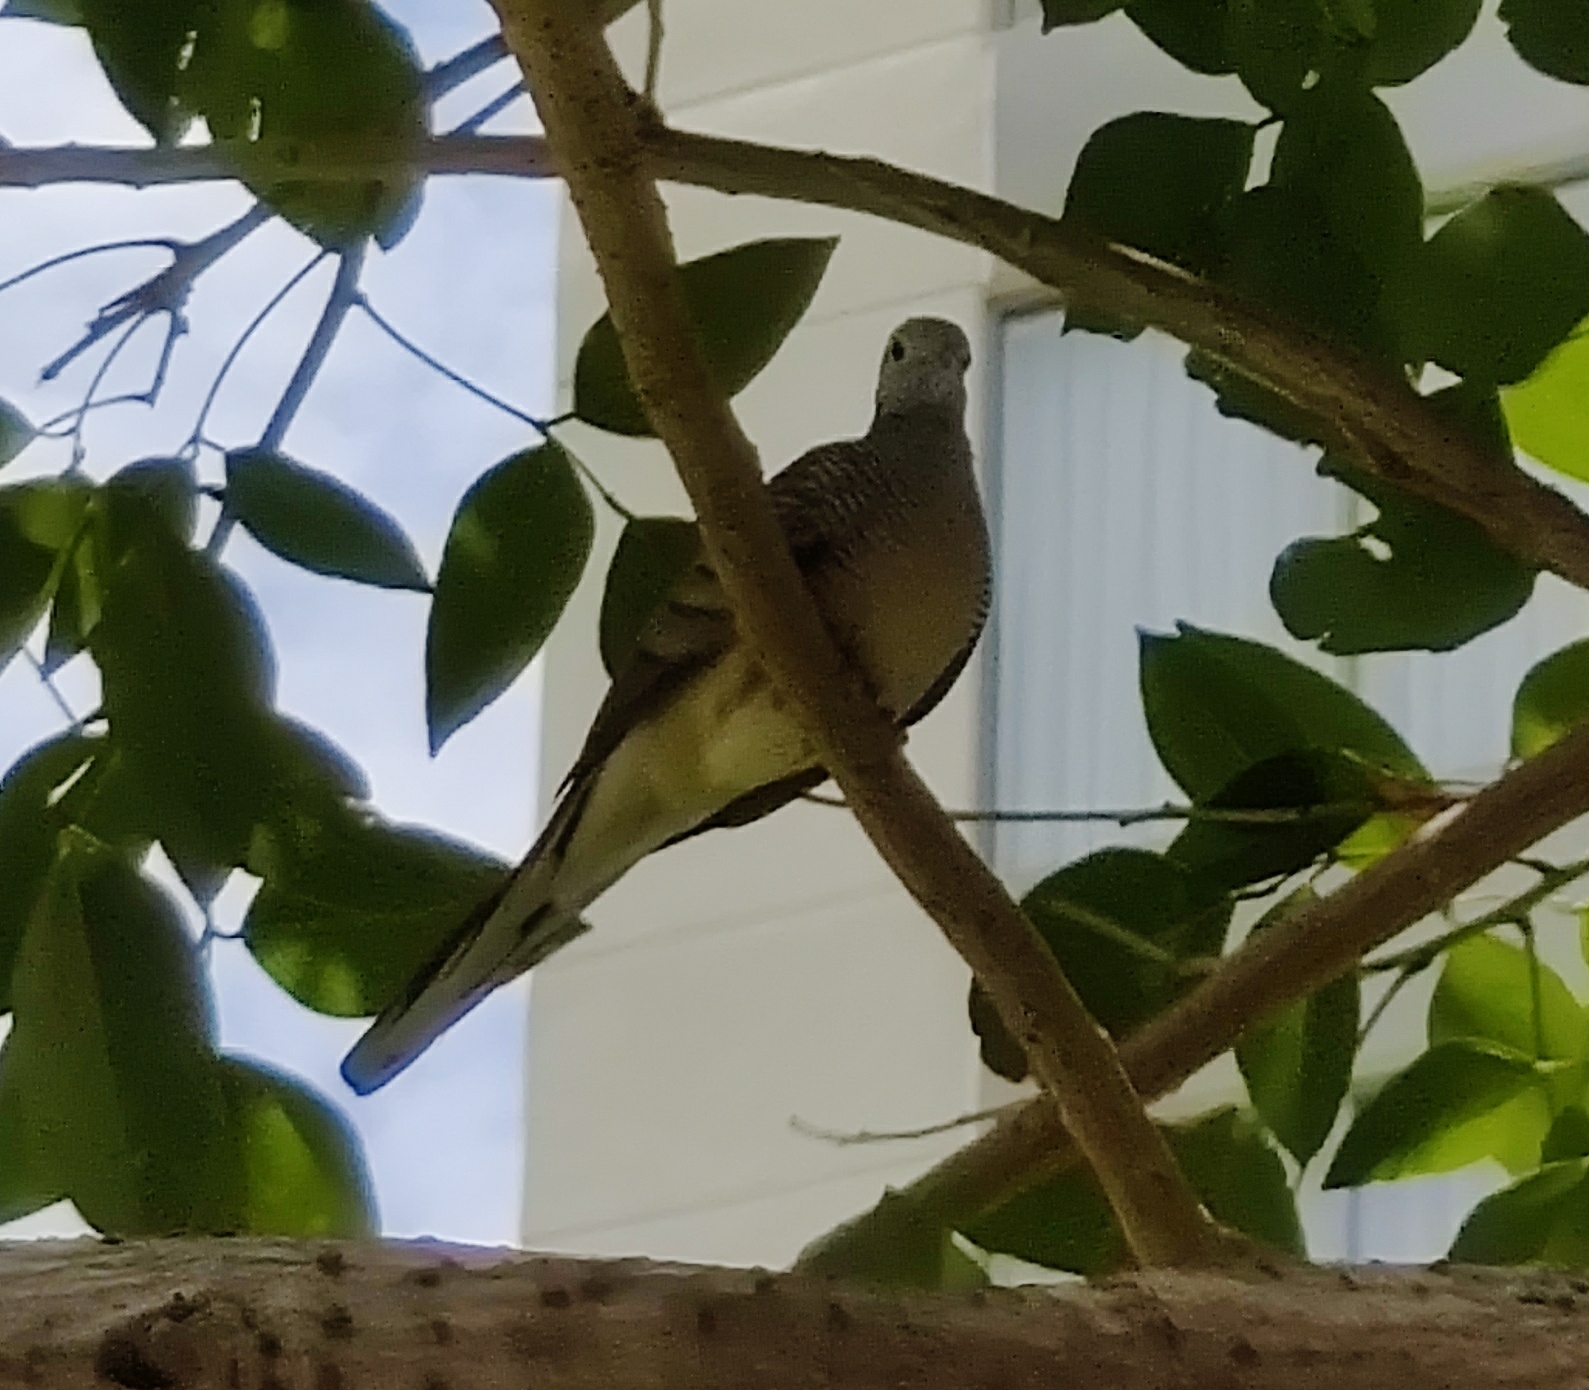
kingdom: Animalia
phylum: Chordata
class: Aves
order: Columbiformes
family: Columbidae
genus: Geopelia
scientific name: Geopelia striata
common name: Zebra dove
